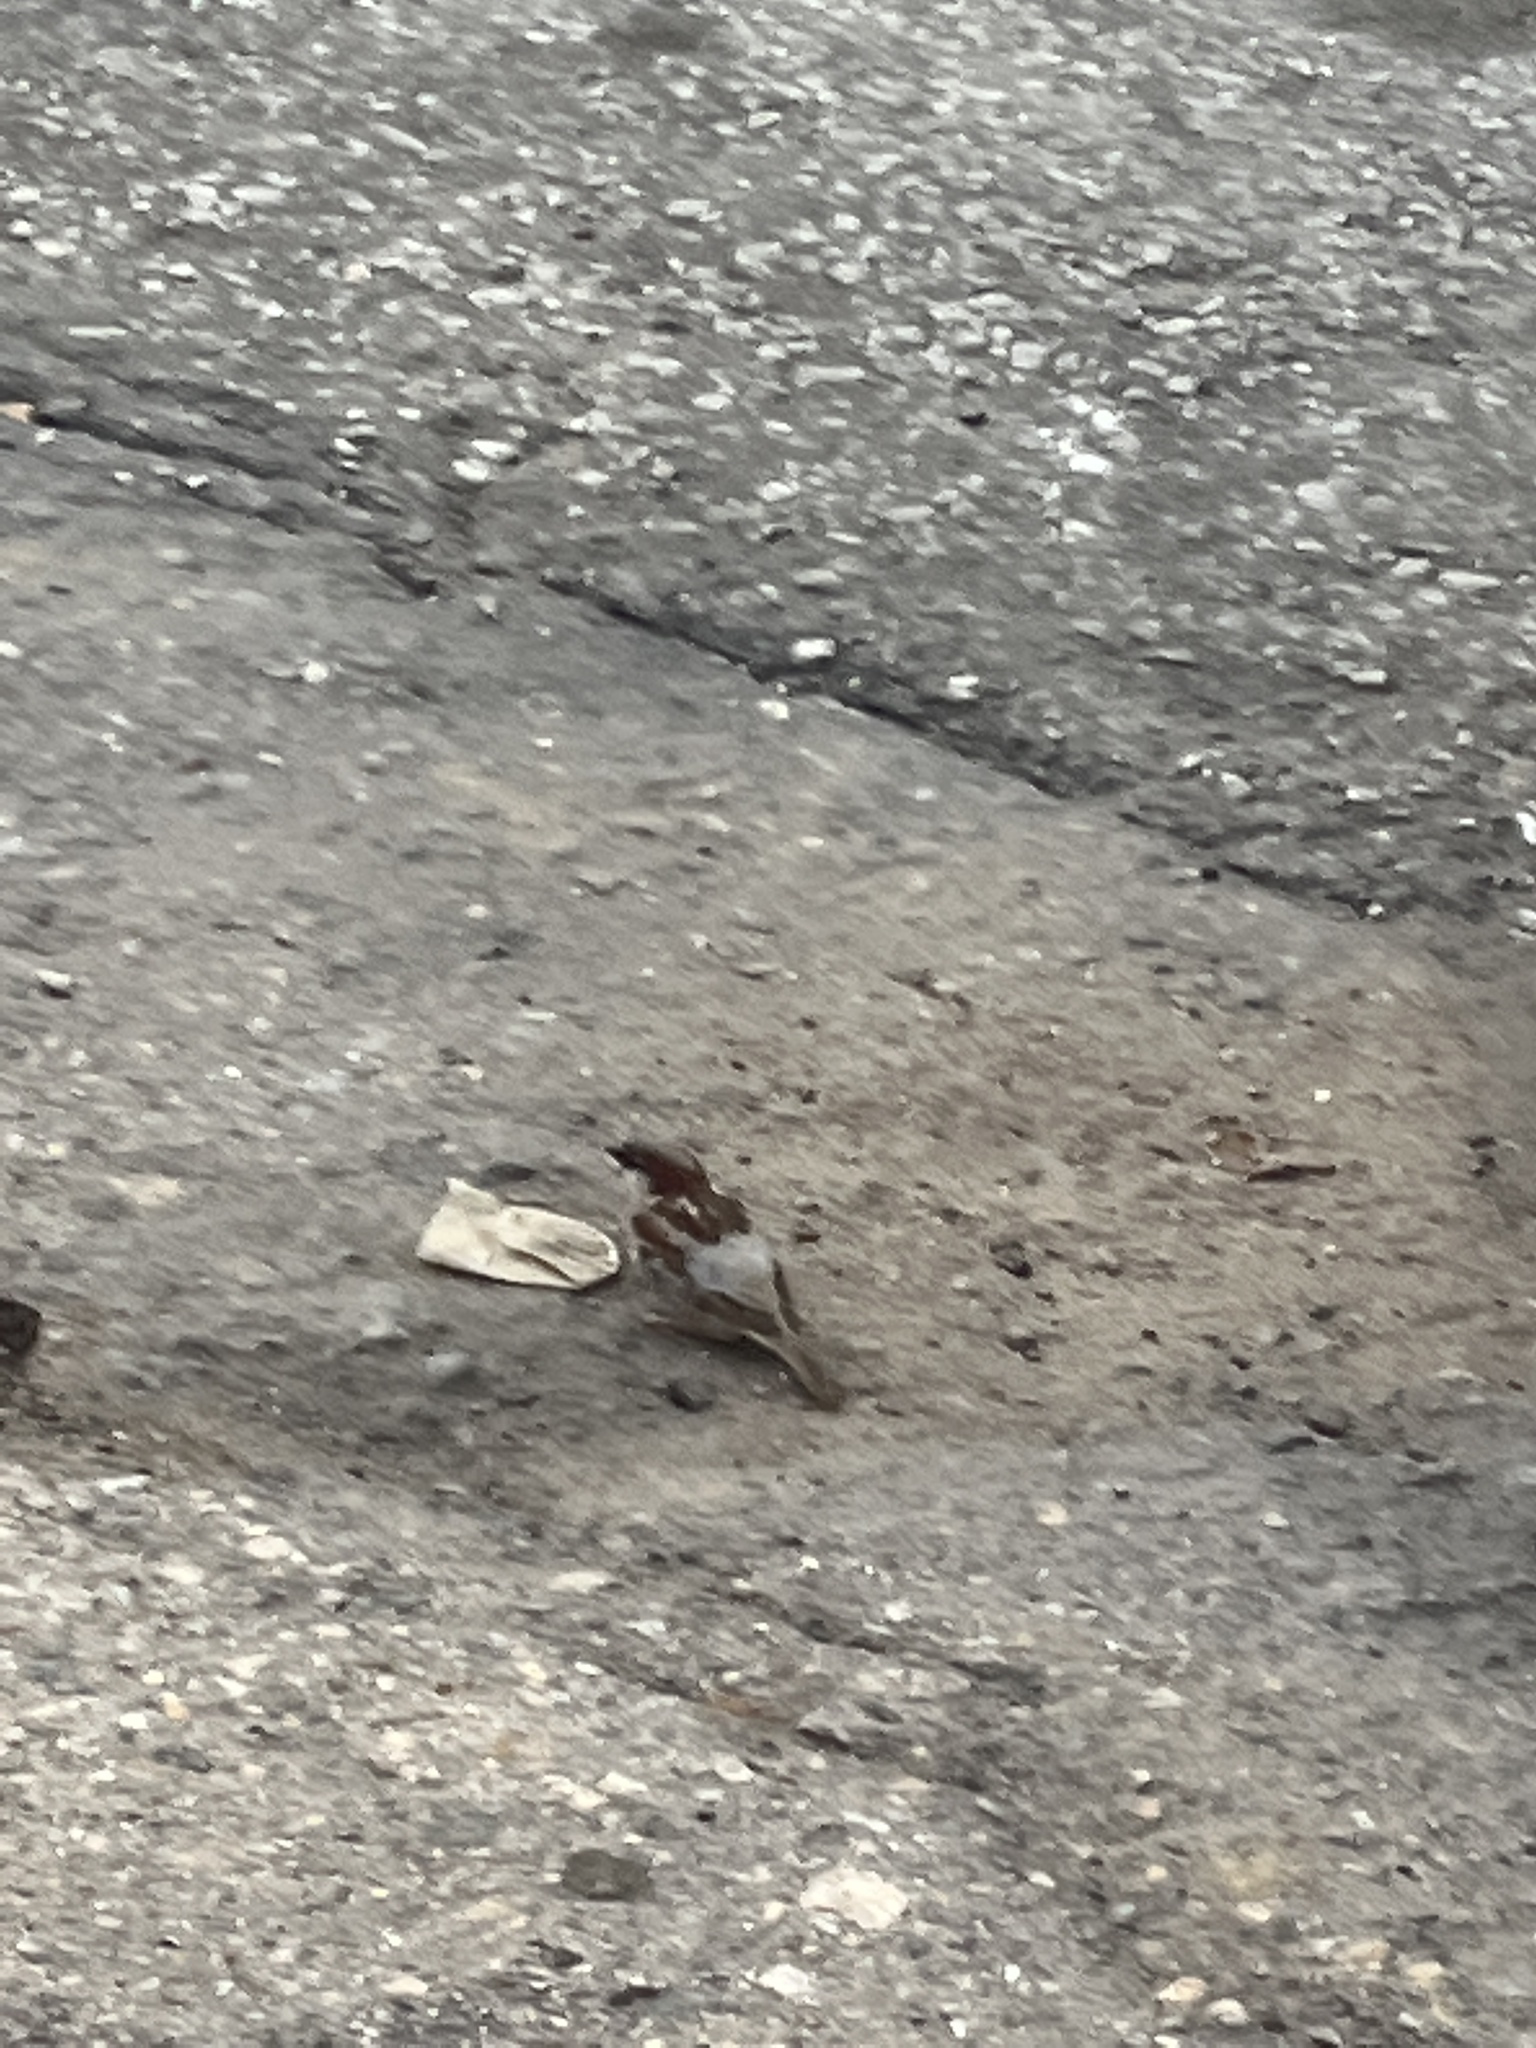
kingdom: Animalia
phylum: Chordata
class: Aves
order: Passeriformes
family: Passeridae
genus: Passer
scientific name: Passer domesticus
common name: House sparrow
